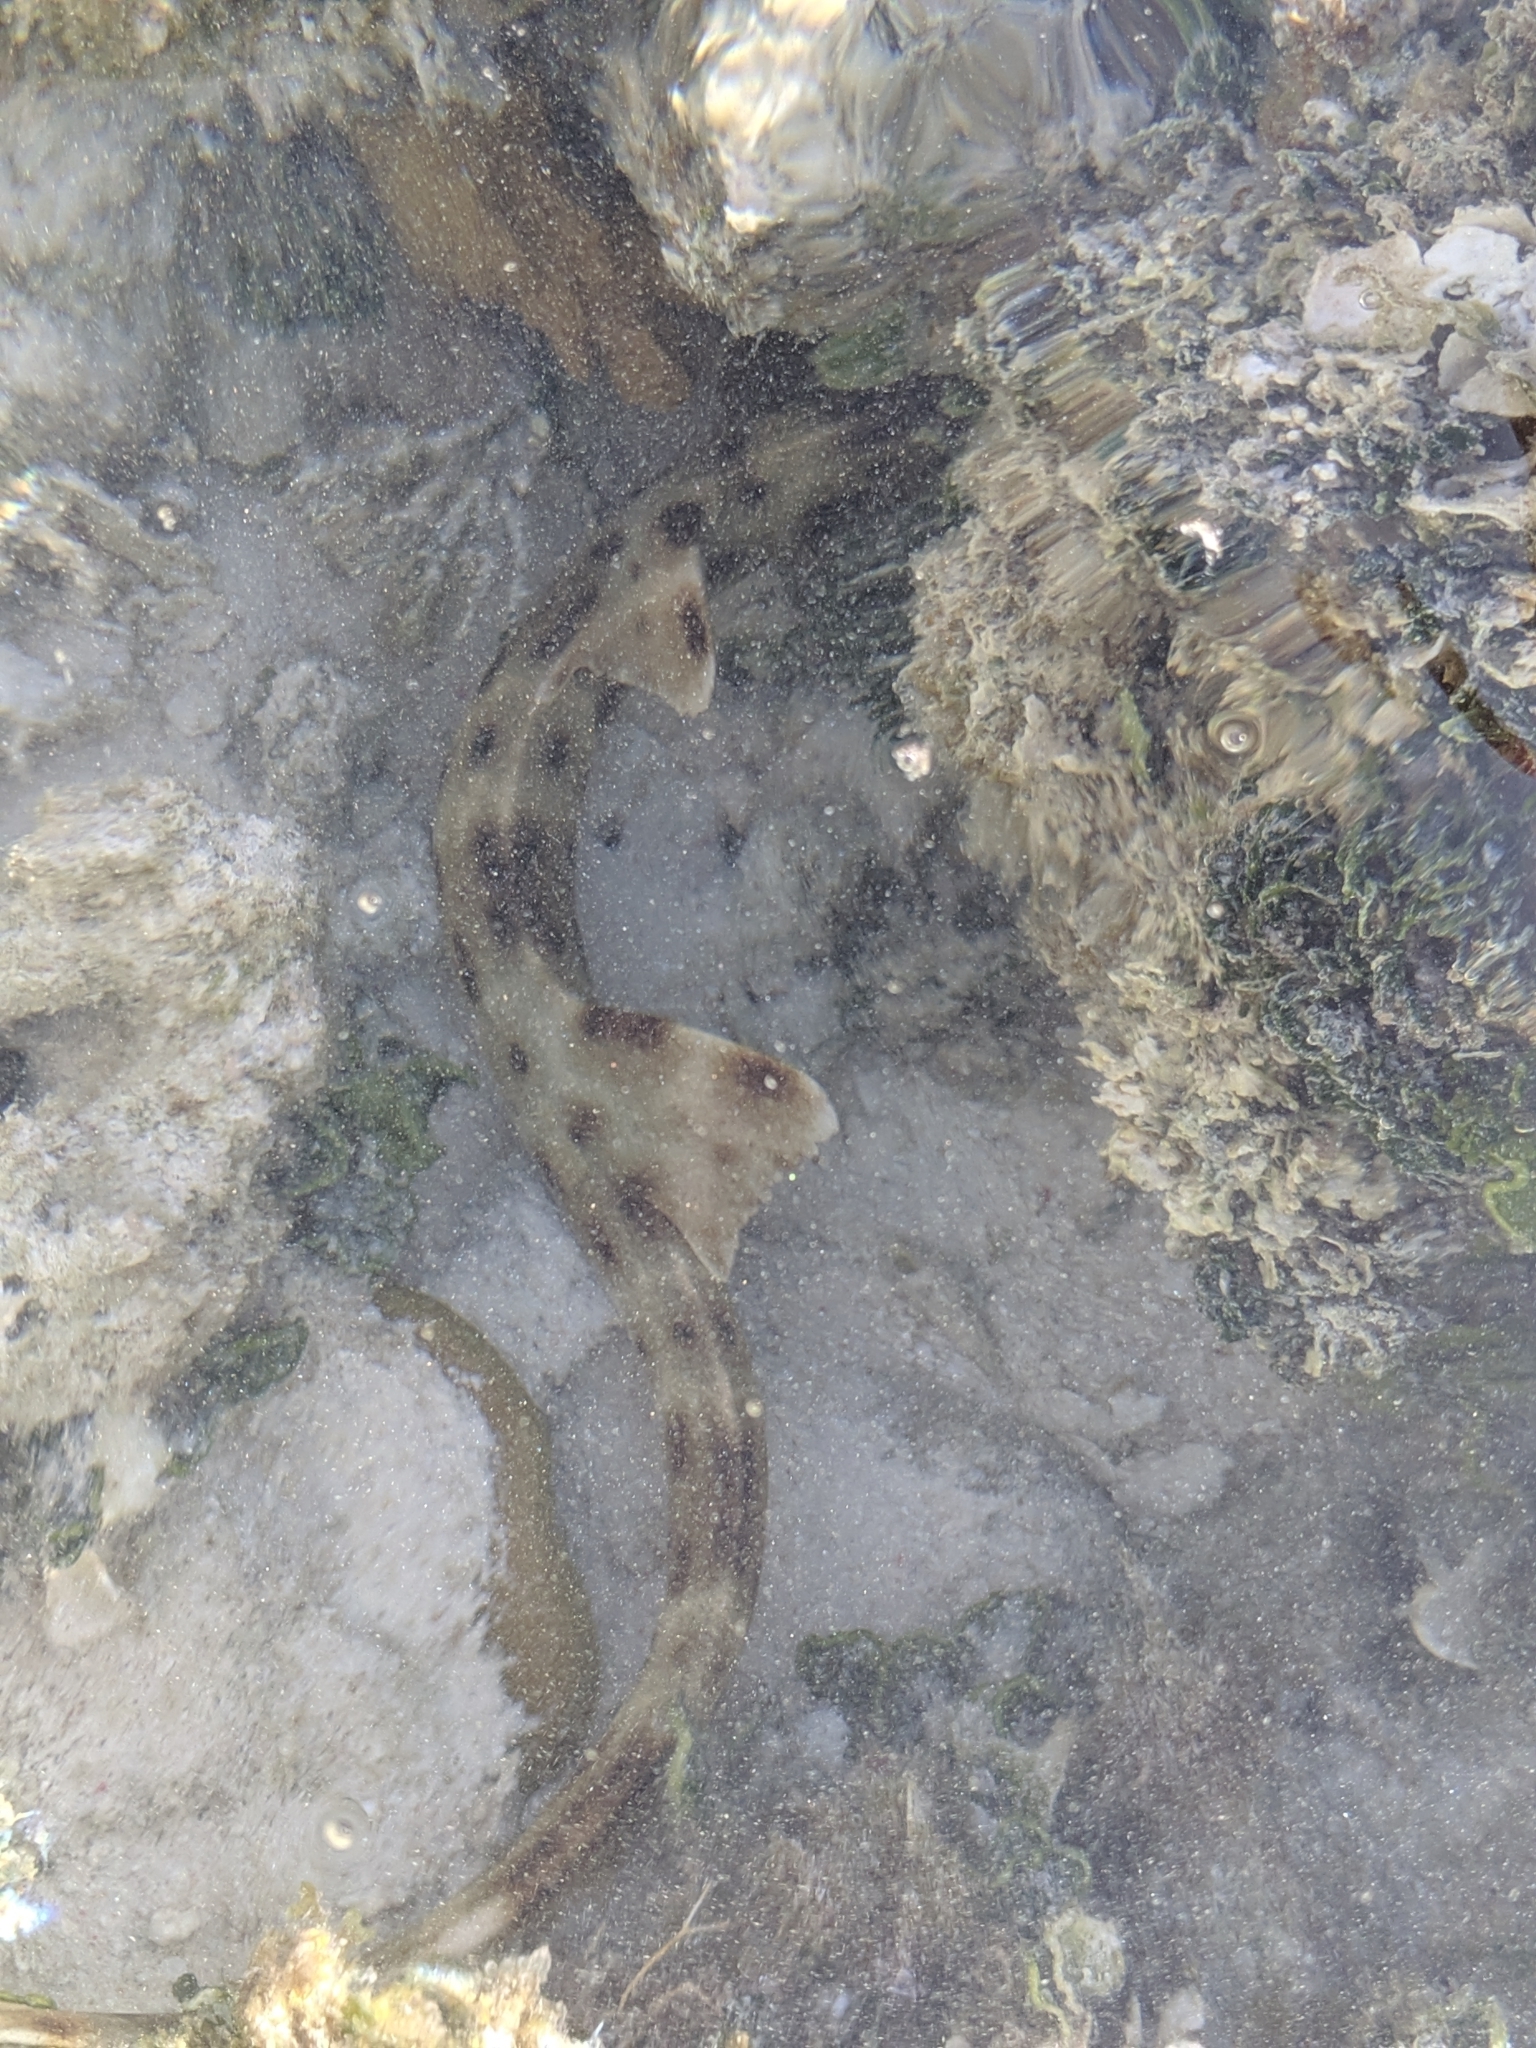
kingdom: Animalia
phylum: Chordata
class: Elasmobranchii
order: Orectolobiformes
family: Hemiscylliidae
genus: Hemiscyllium
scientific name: Hemiscyllium ocellatum
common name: Epaulette shark
